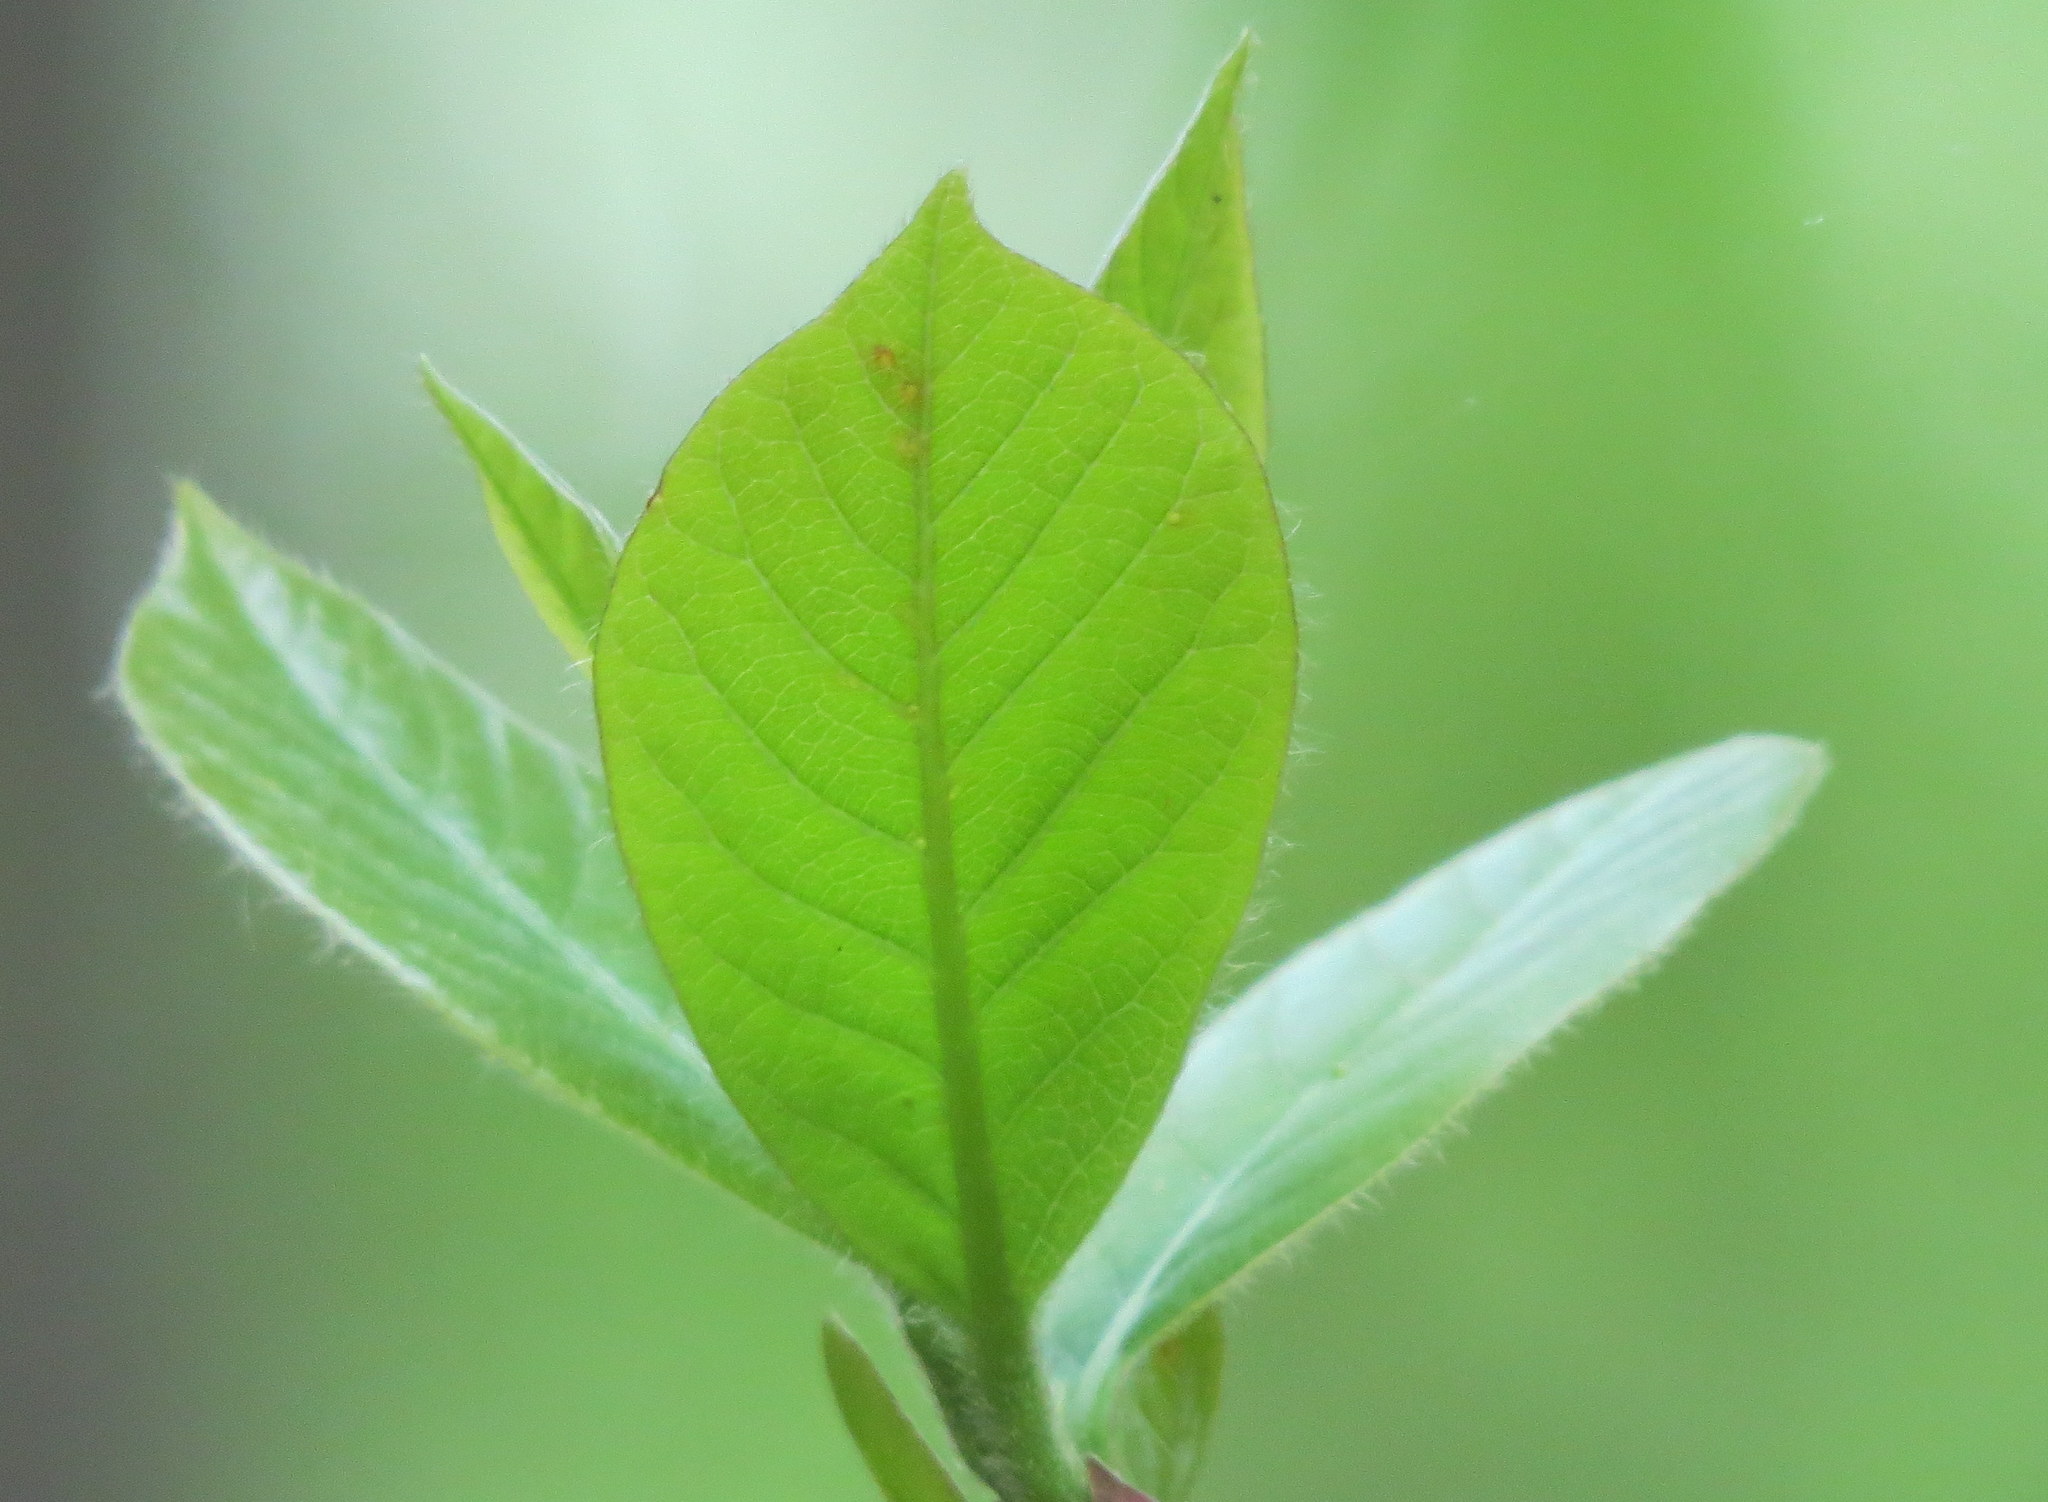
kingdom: Plantae
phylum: Tracheophyta
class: Magnoliopsida
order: Cornales
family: Nyssaceae
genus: Nyssa
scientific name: Nyssa sylvatica
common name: Black tupelo
